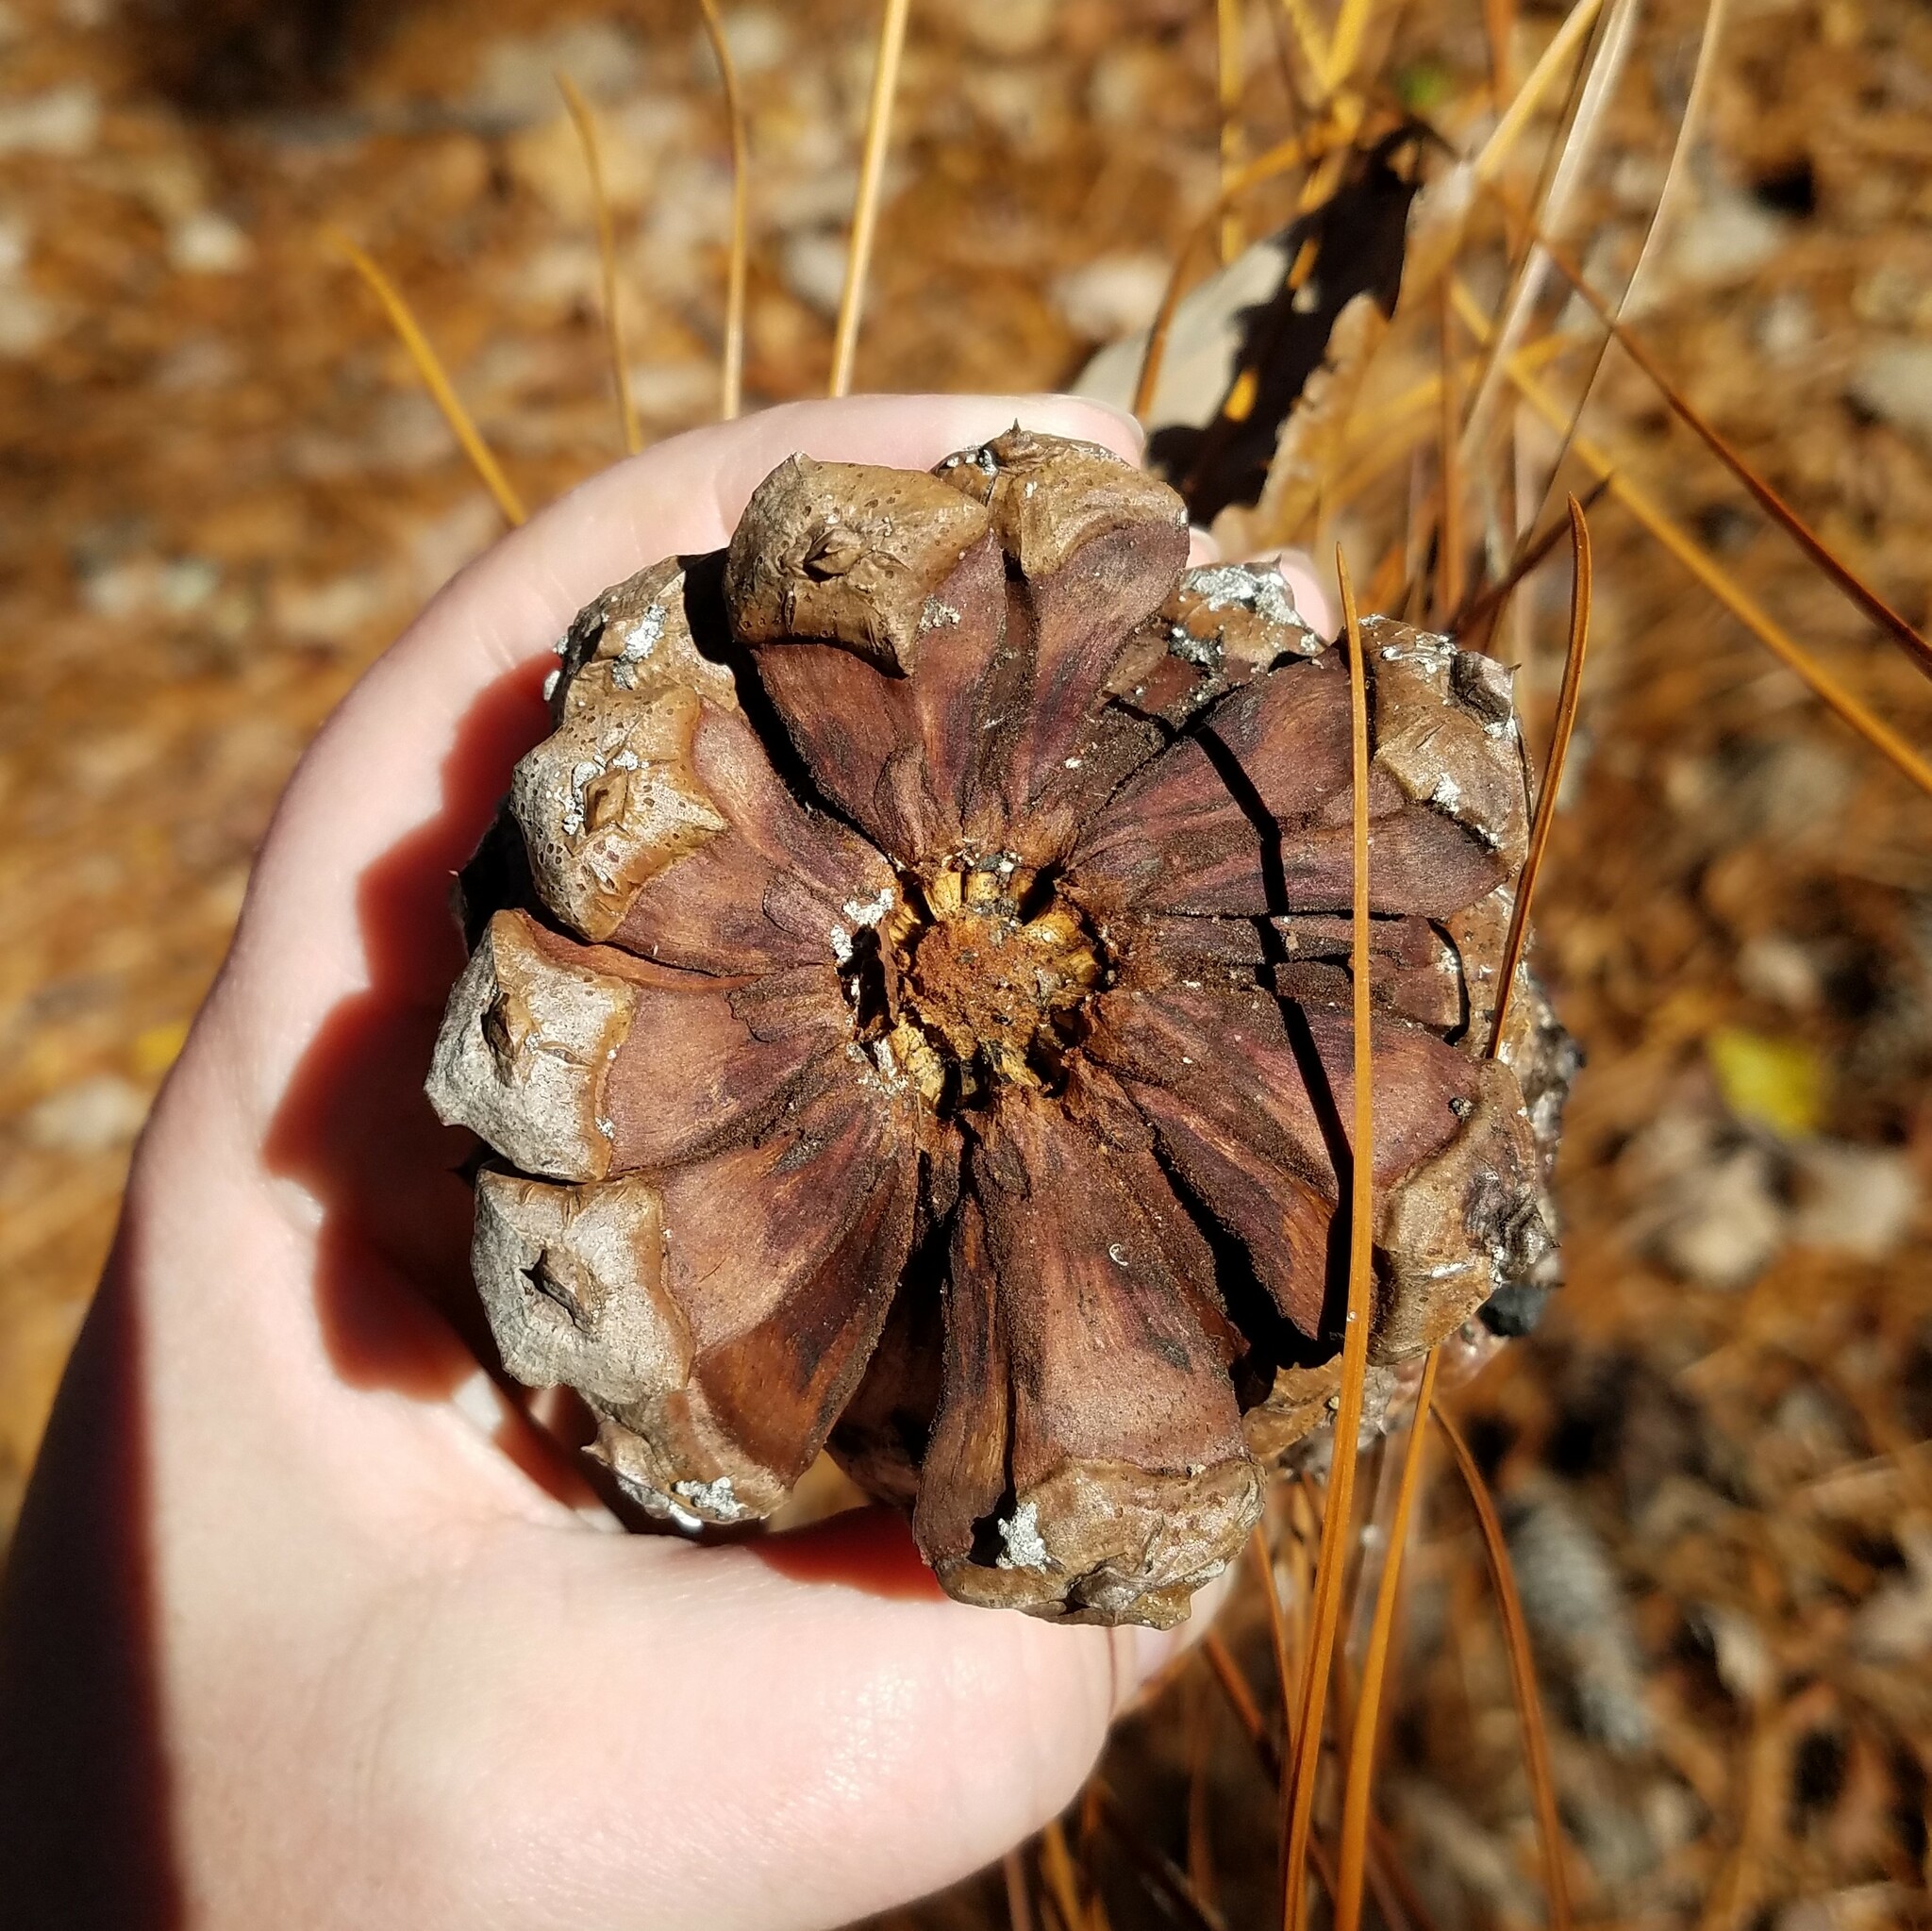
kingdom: Plantae
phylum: Tracheophyta
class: Pinopsida
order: Pinales
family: Pinaceae
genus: Pinus
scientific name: Pinus palustris
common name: Longleaf pine
